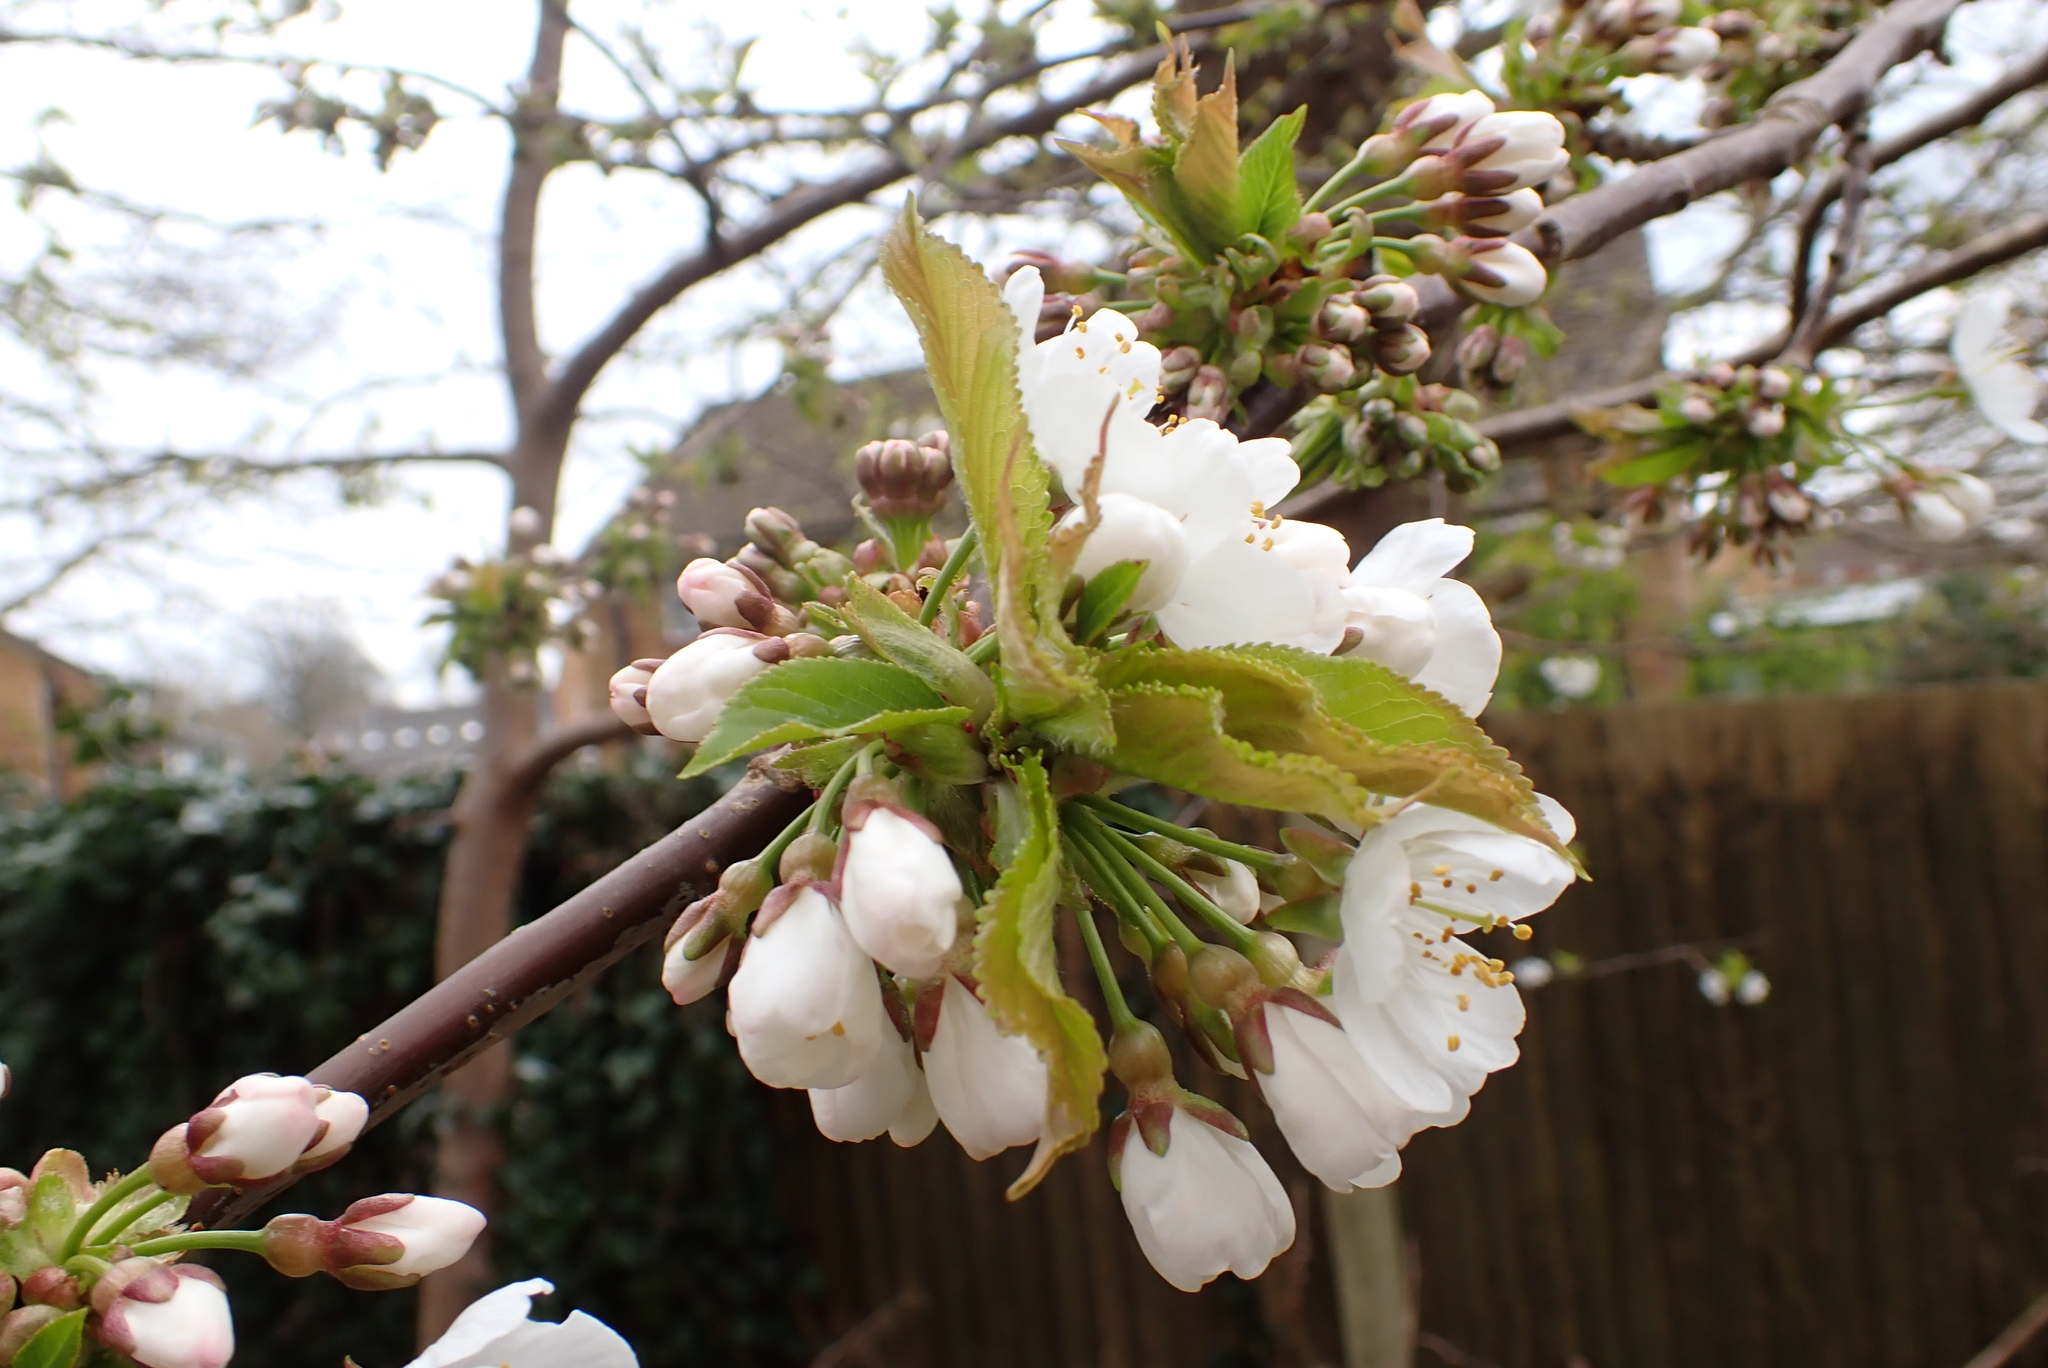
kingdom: Plantae
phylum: Tracheophyta
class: Magnoliopsida
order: Rosales
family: Rosaceae
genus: Prunus
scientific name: Prunus avium
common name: Sweet cherry
